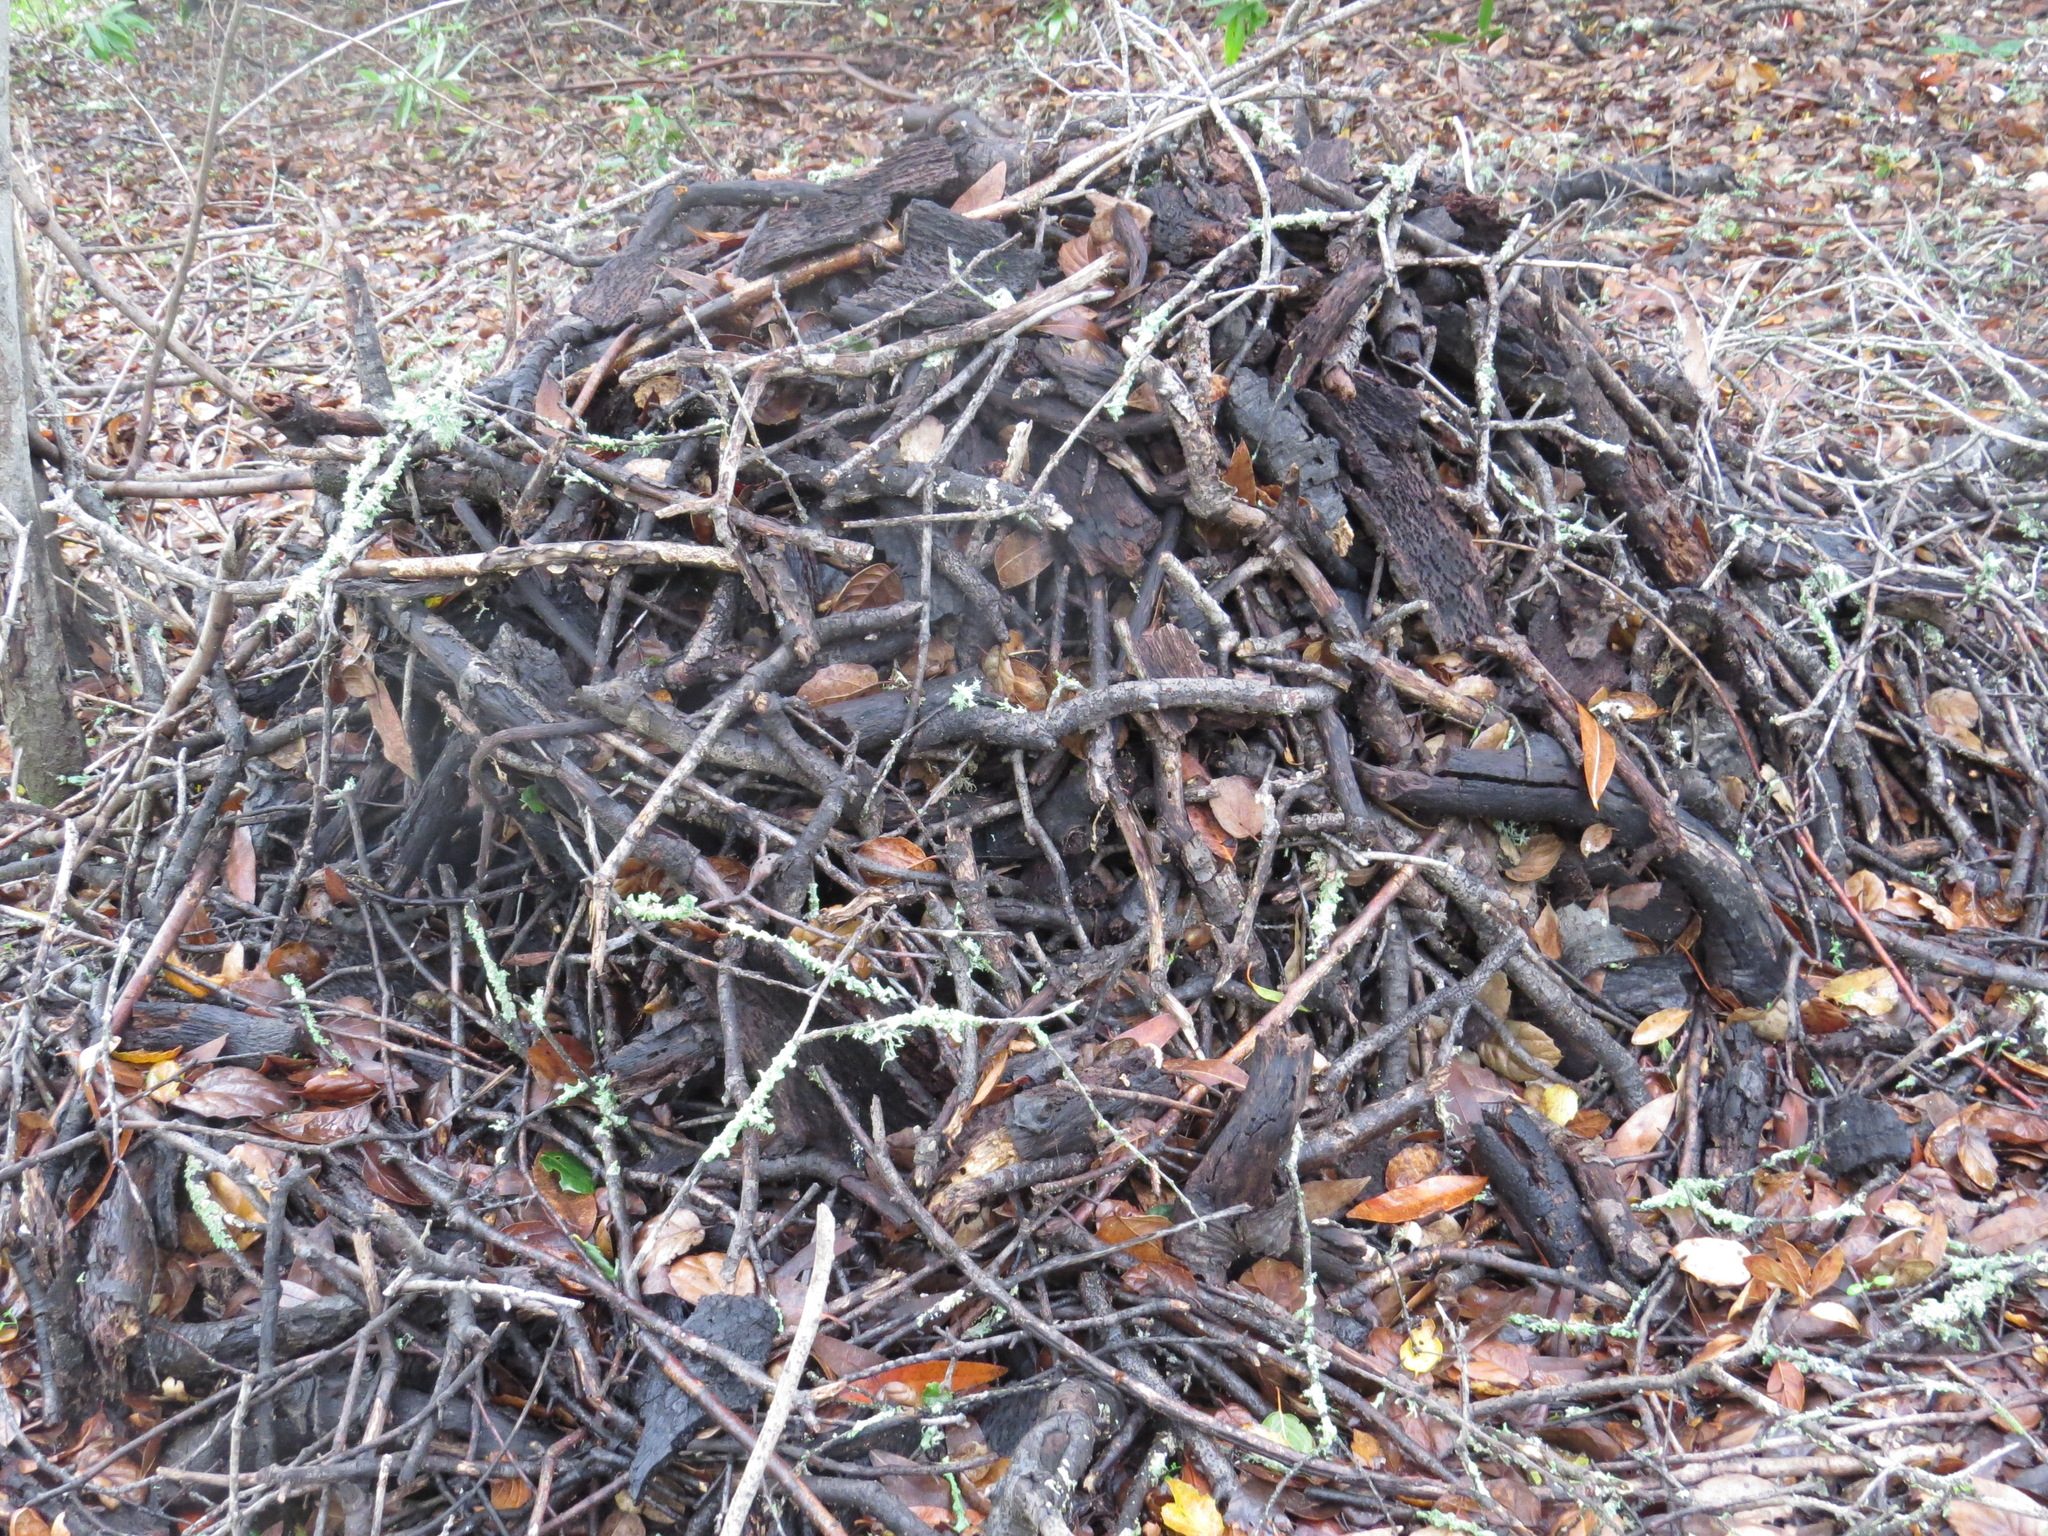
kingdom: Animalia
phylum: Chordata
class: Mammalia
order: Rodentia
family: Cricetidae
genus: Neotoma
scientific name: Neotoma fuscipes
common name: Dusky-footed woodrat
